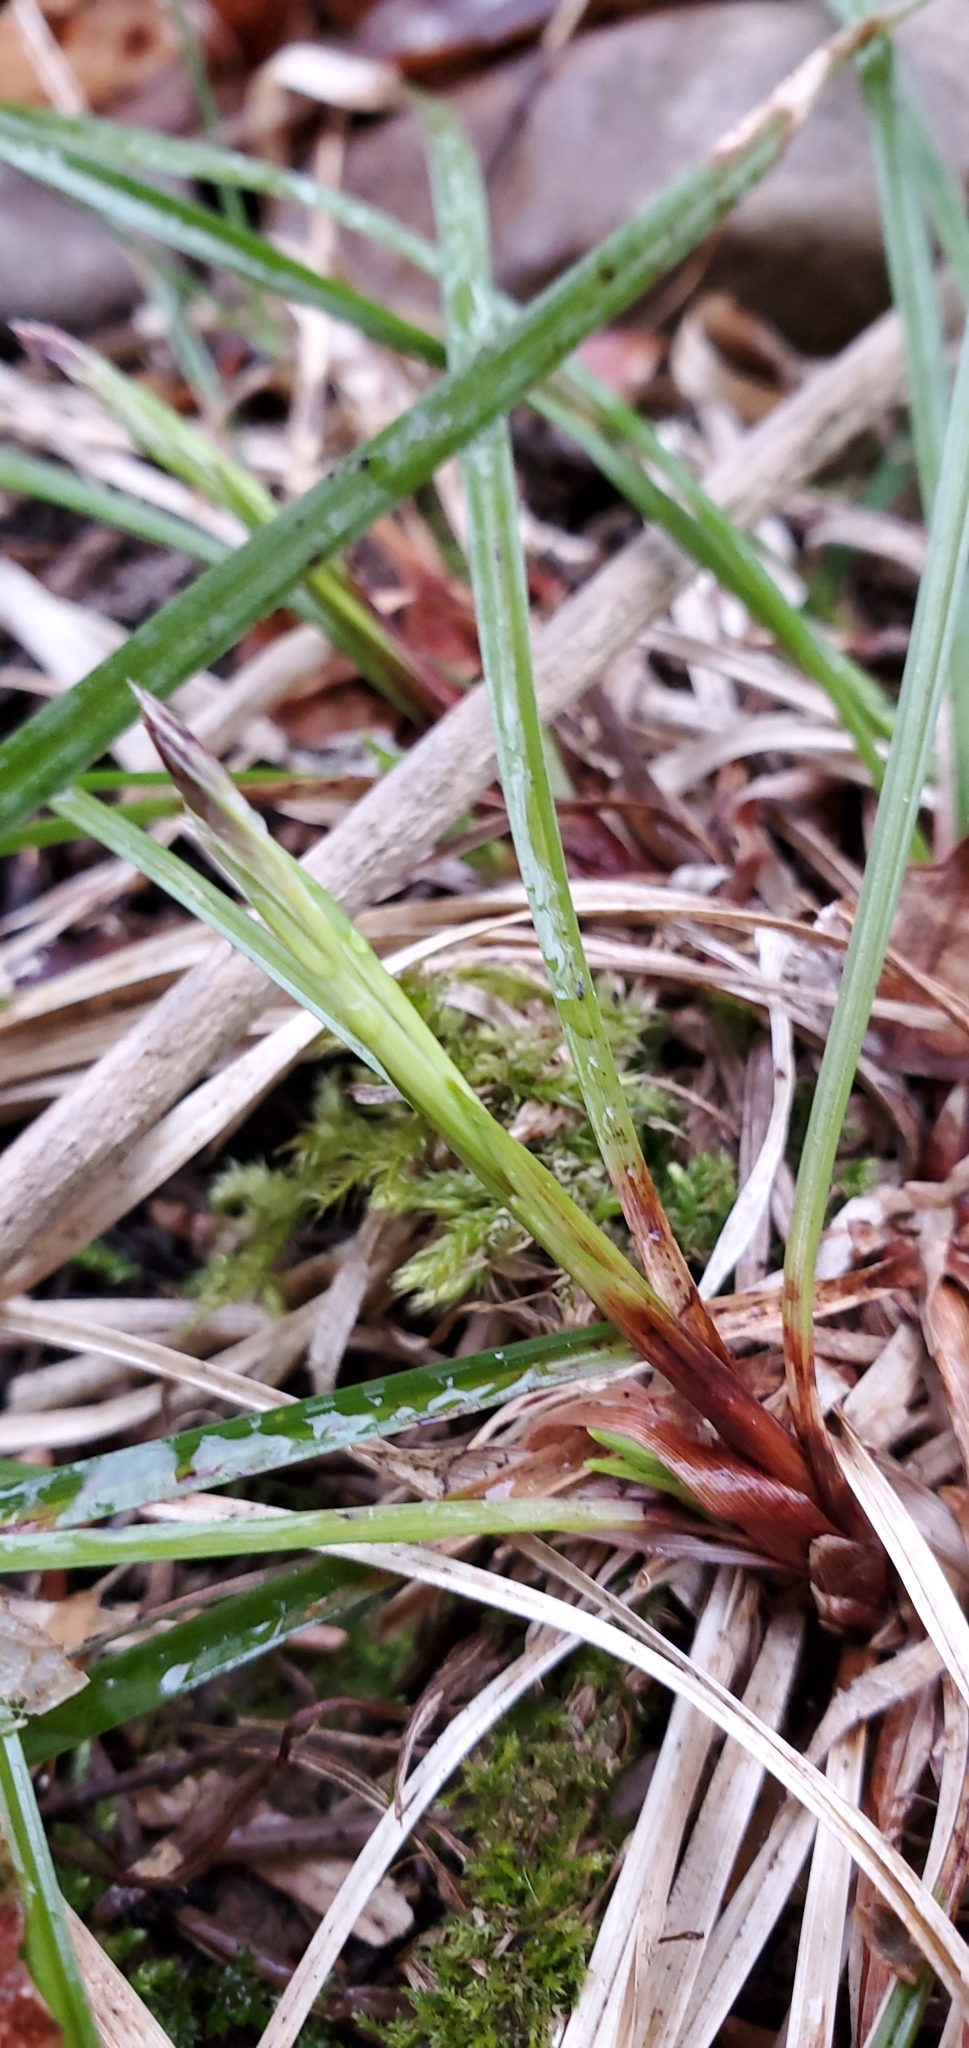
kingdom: Plantae
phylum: Tracheophyta
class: Liliopsida
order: Poales
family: Cyperaceae
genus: Carex
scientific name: Carex pedunculata
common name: Pedunculate sedge
